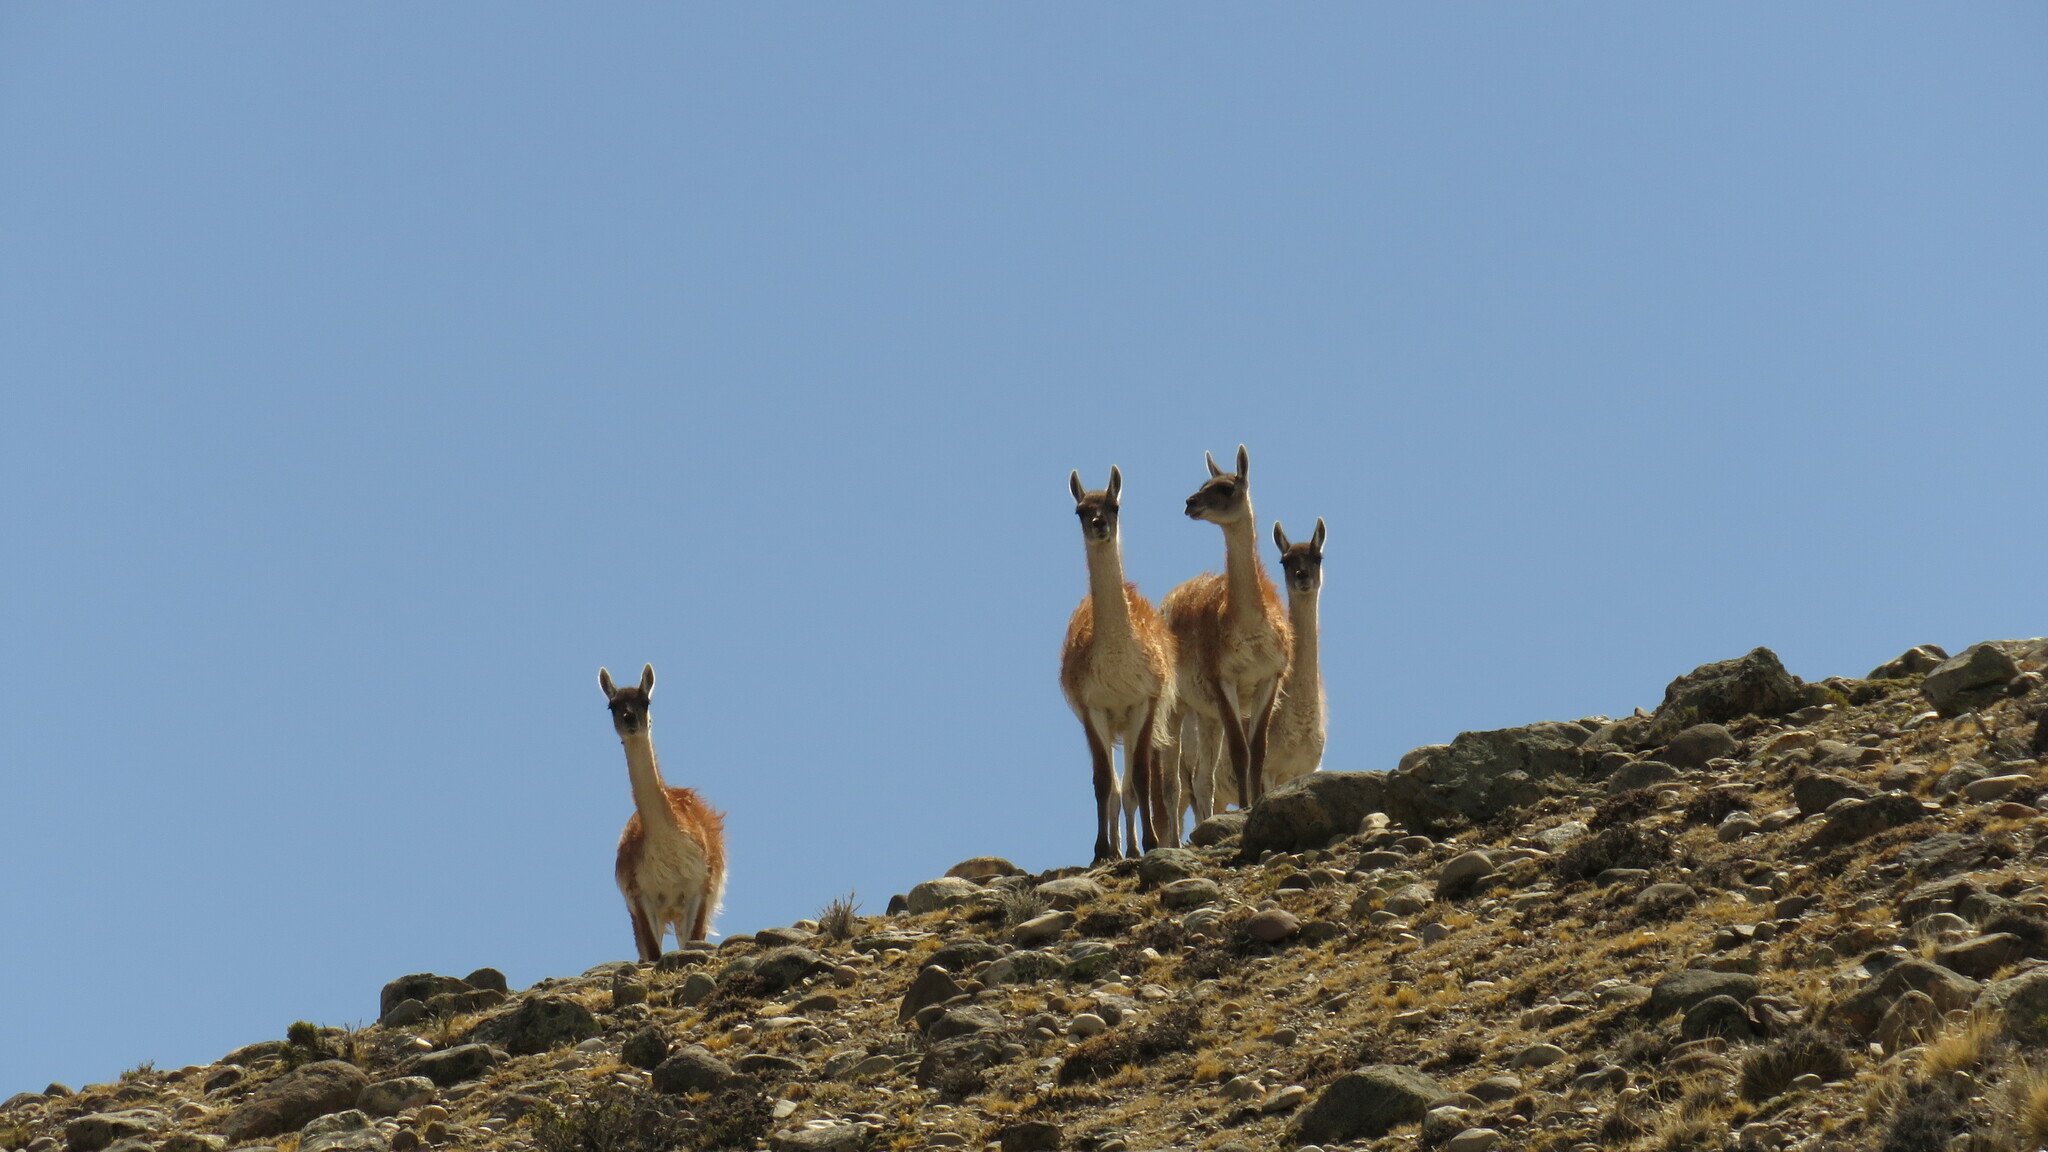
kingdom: Animalia
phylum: Chordata
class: Mammalia
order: Artiodactyla
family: Camelidae
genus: Lama
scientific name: Lama glama
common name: Llama
